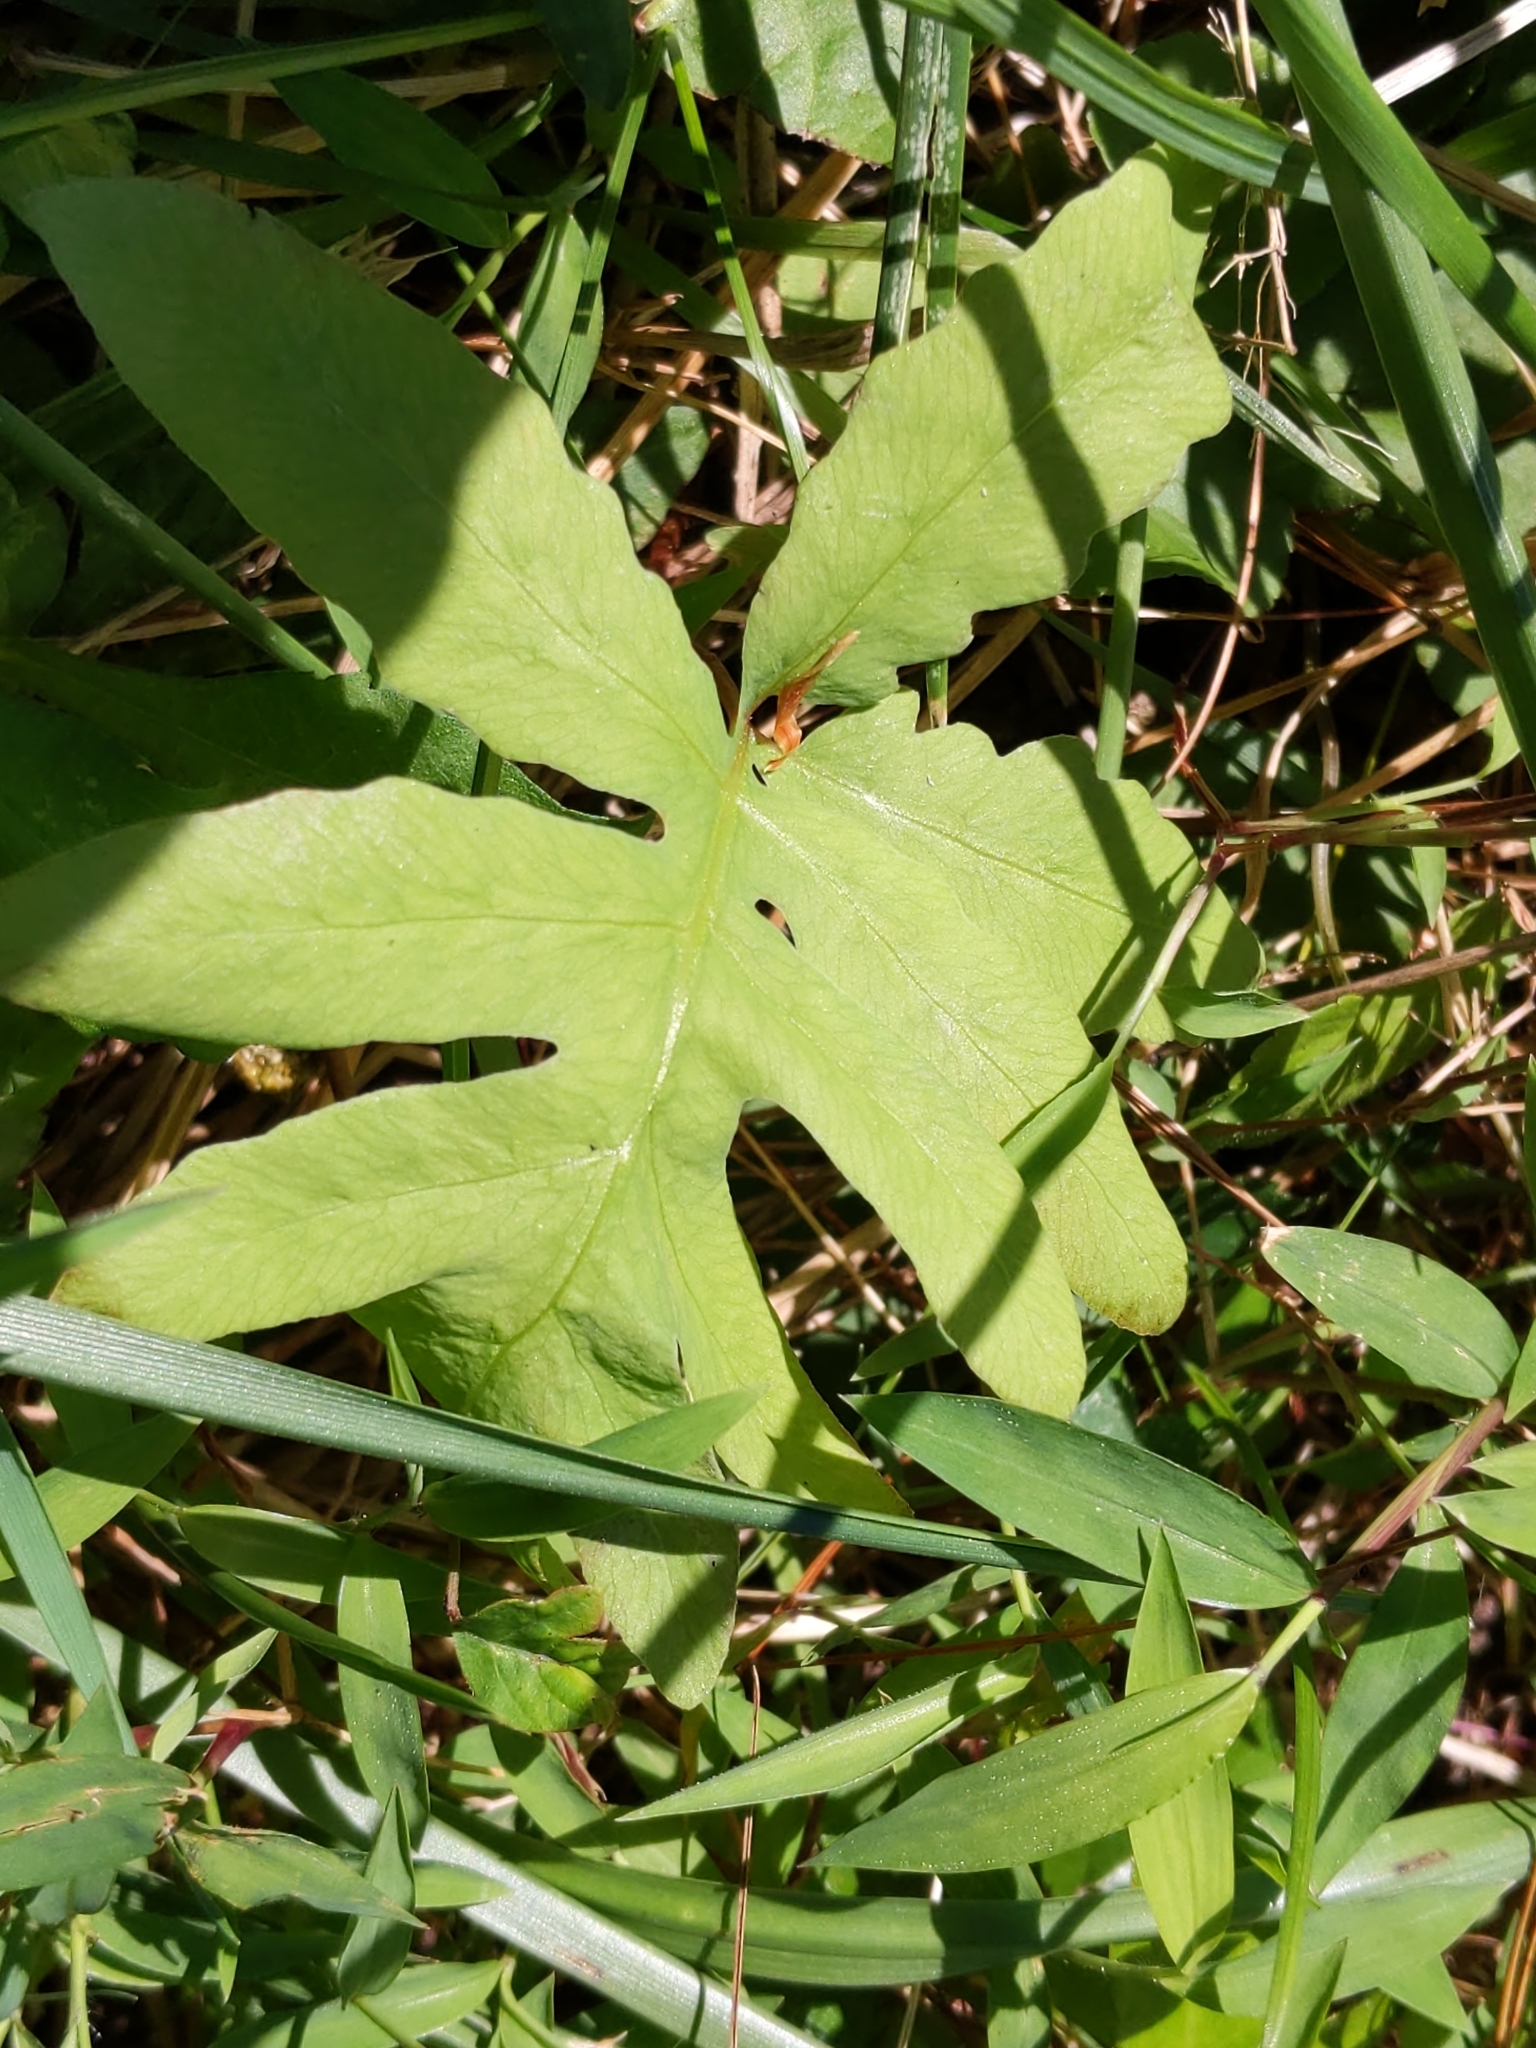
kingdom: Plantae
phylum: Tracheophyta
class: Polypodiopsida
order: Polypodiales
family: Onocleaceae
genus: Onoclea
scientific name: Onoclea sensibilis
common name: Sensitive fern
